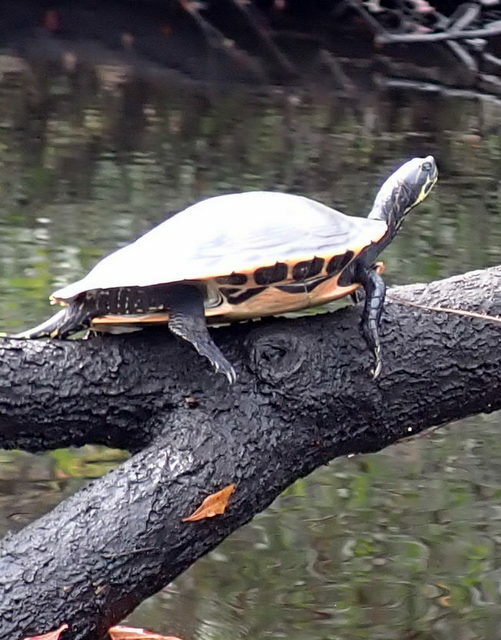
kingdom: Animalia
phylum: Chordata
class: Testudines
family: Emydidae
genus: Pseudemys
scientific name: Pseudemys concinna
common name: Eastern river cooter
